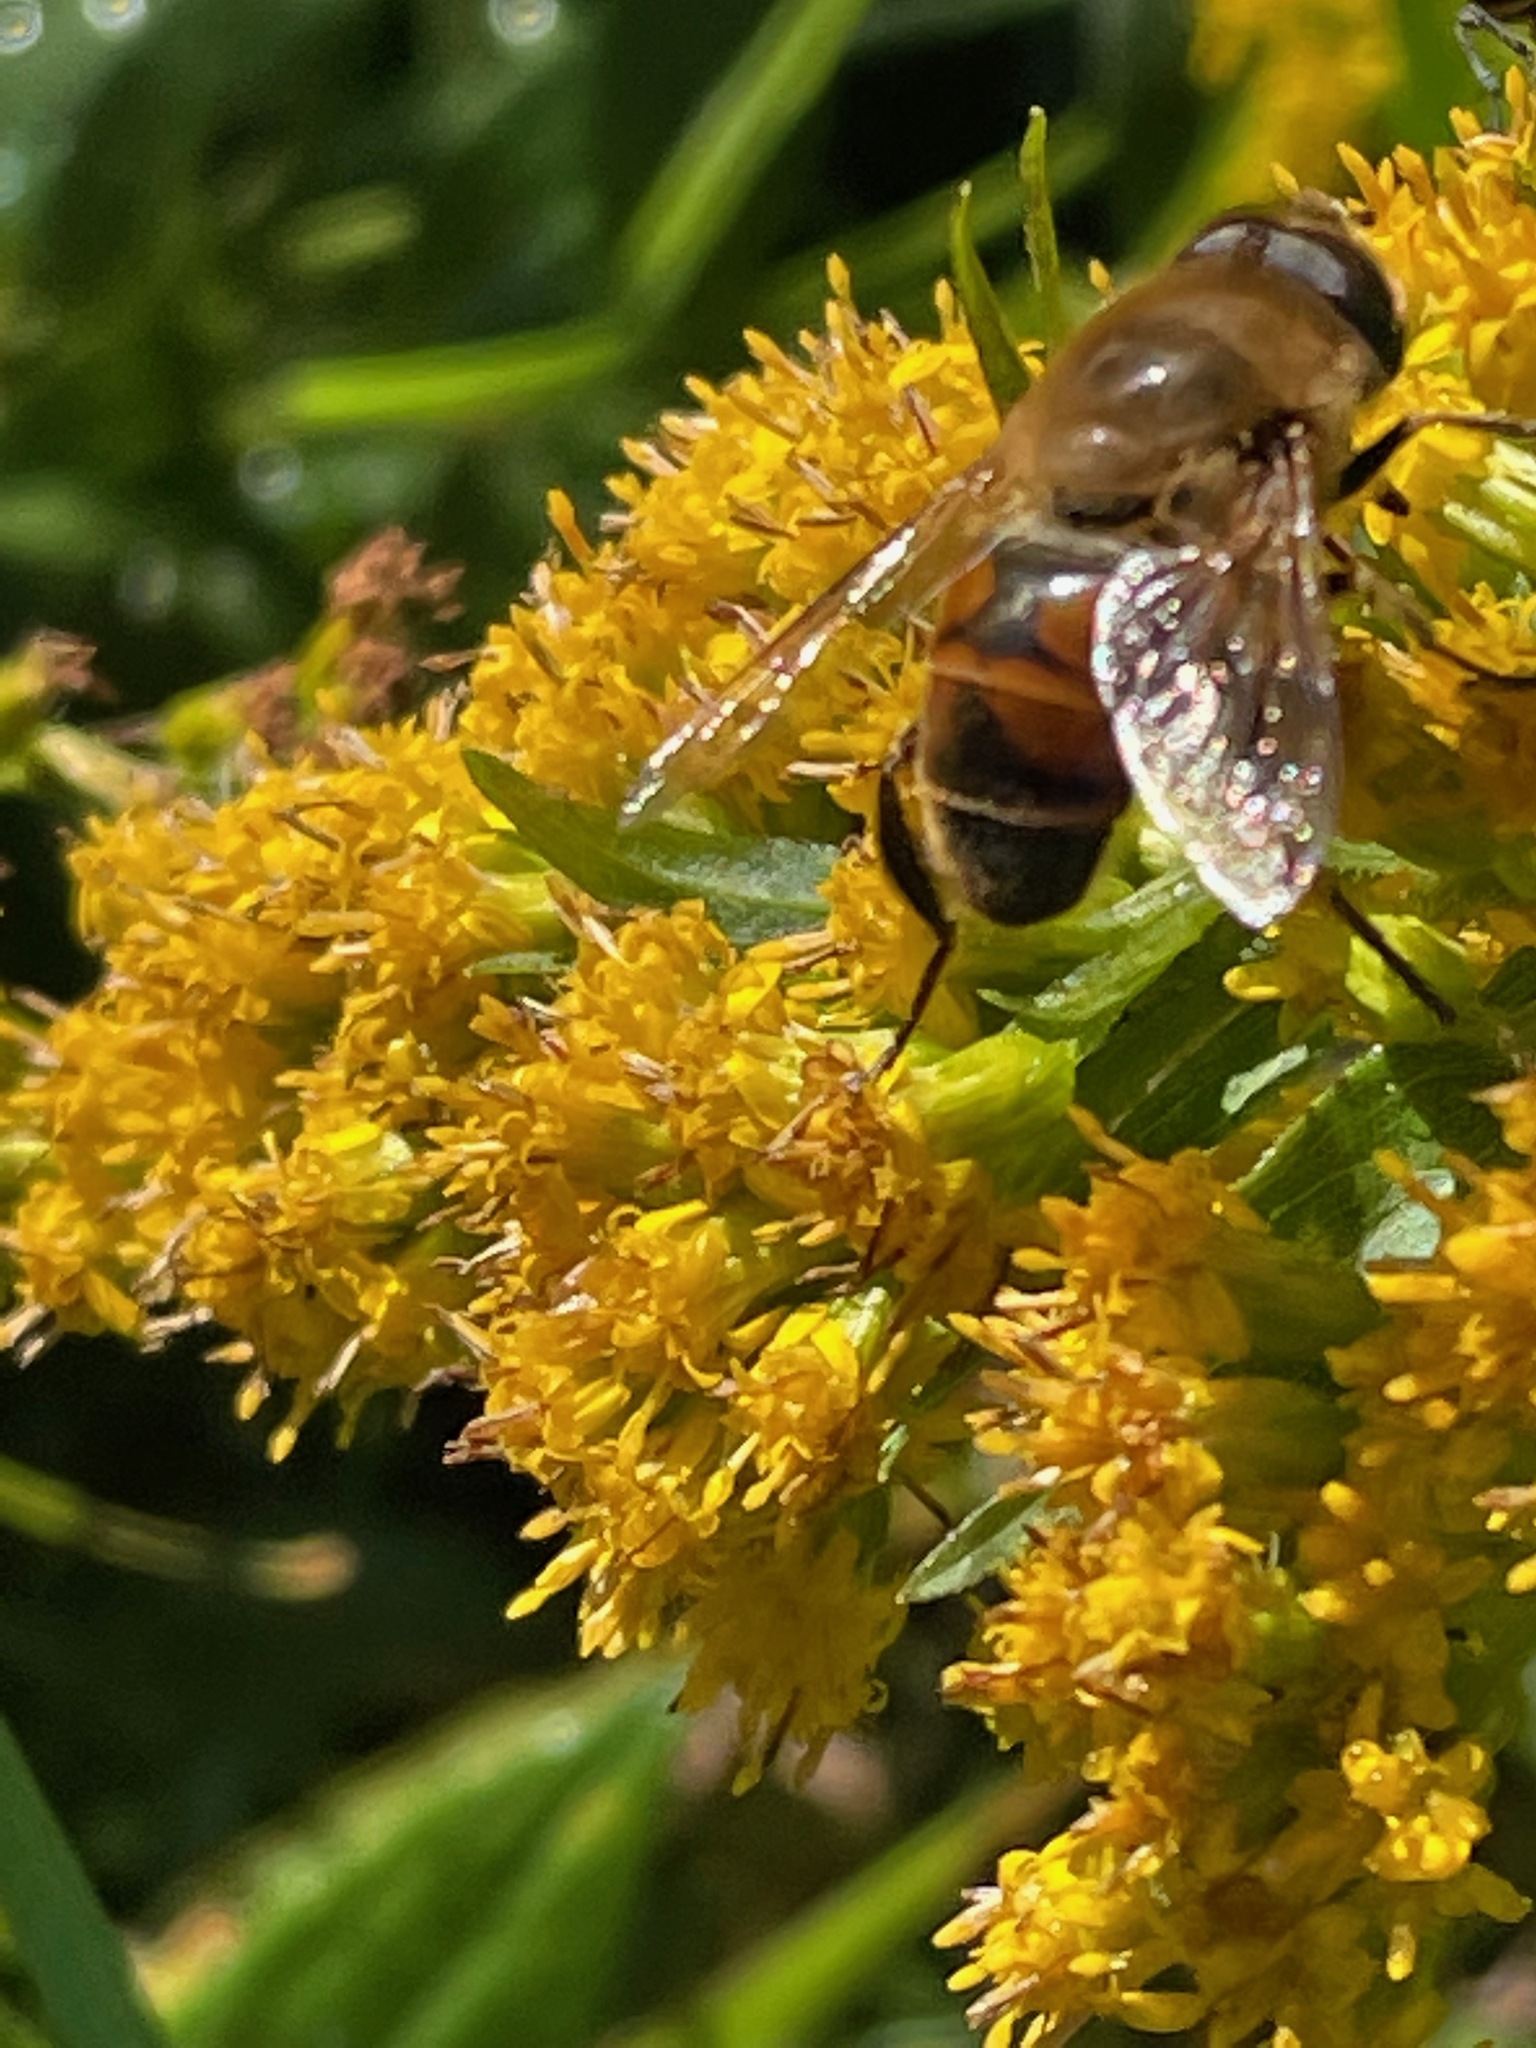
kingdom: Animalia
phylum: Arthropoda
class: Insecta
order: Diptera
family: Syrphidae
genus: Eristalis
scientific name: Eristalis tenax
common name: Drone fly
